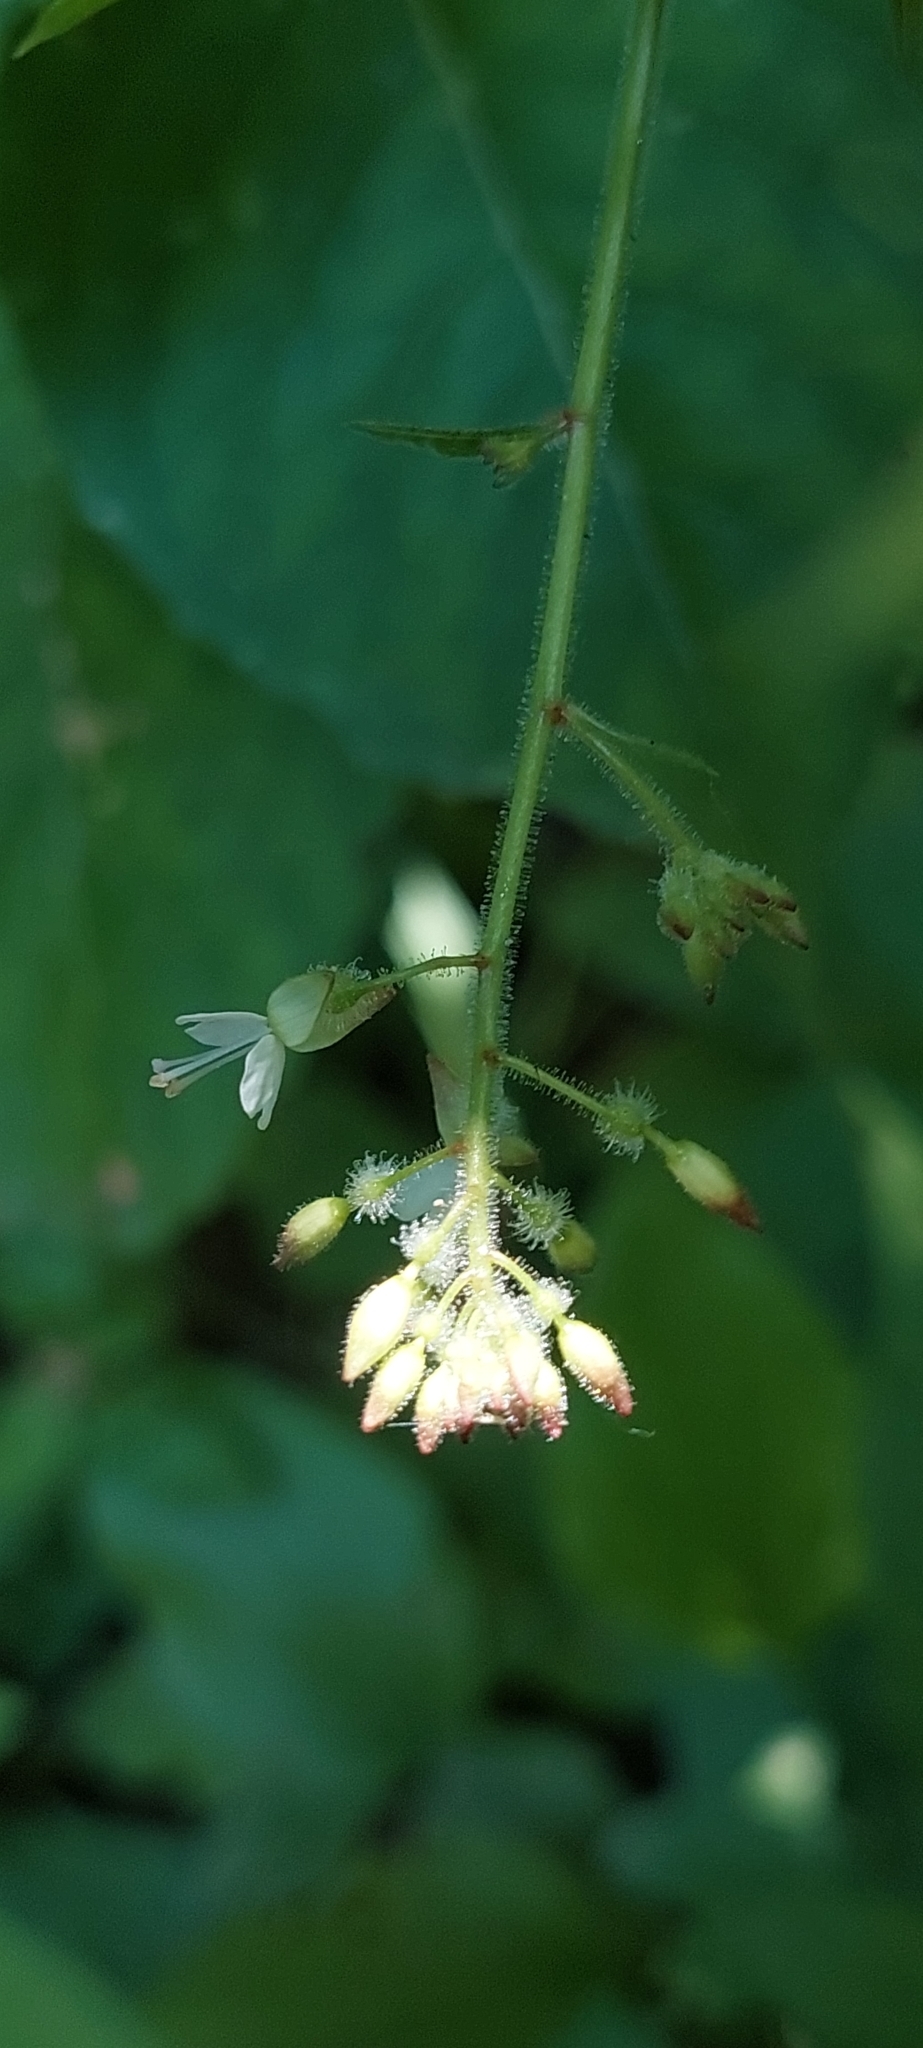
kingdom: Plantae
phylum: Tracheophyta
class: Magnoliopsida
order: Myrtales
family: Onagraceae
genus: Circaea
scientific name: Circaea lutetiana
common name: Enchanter's-nightshade
